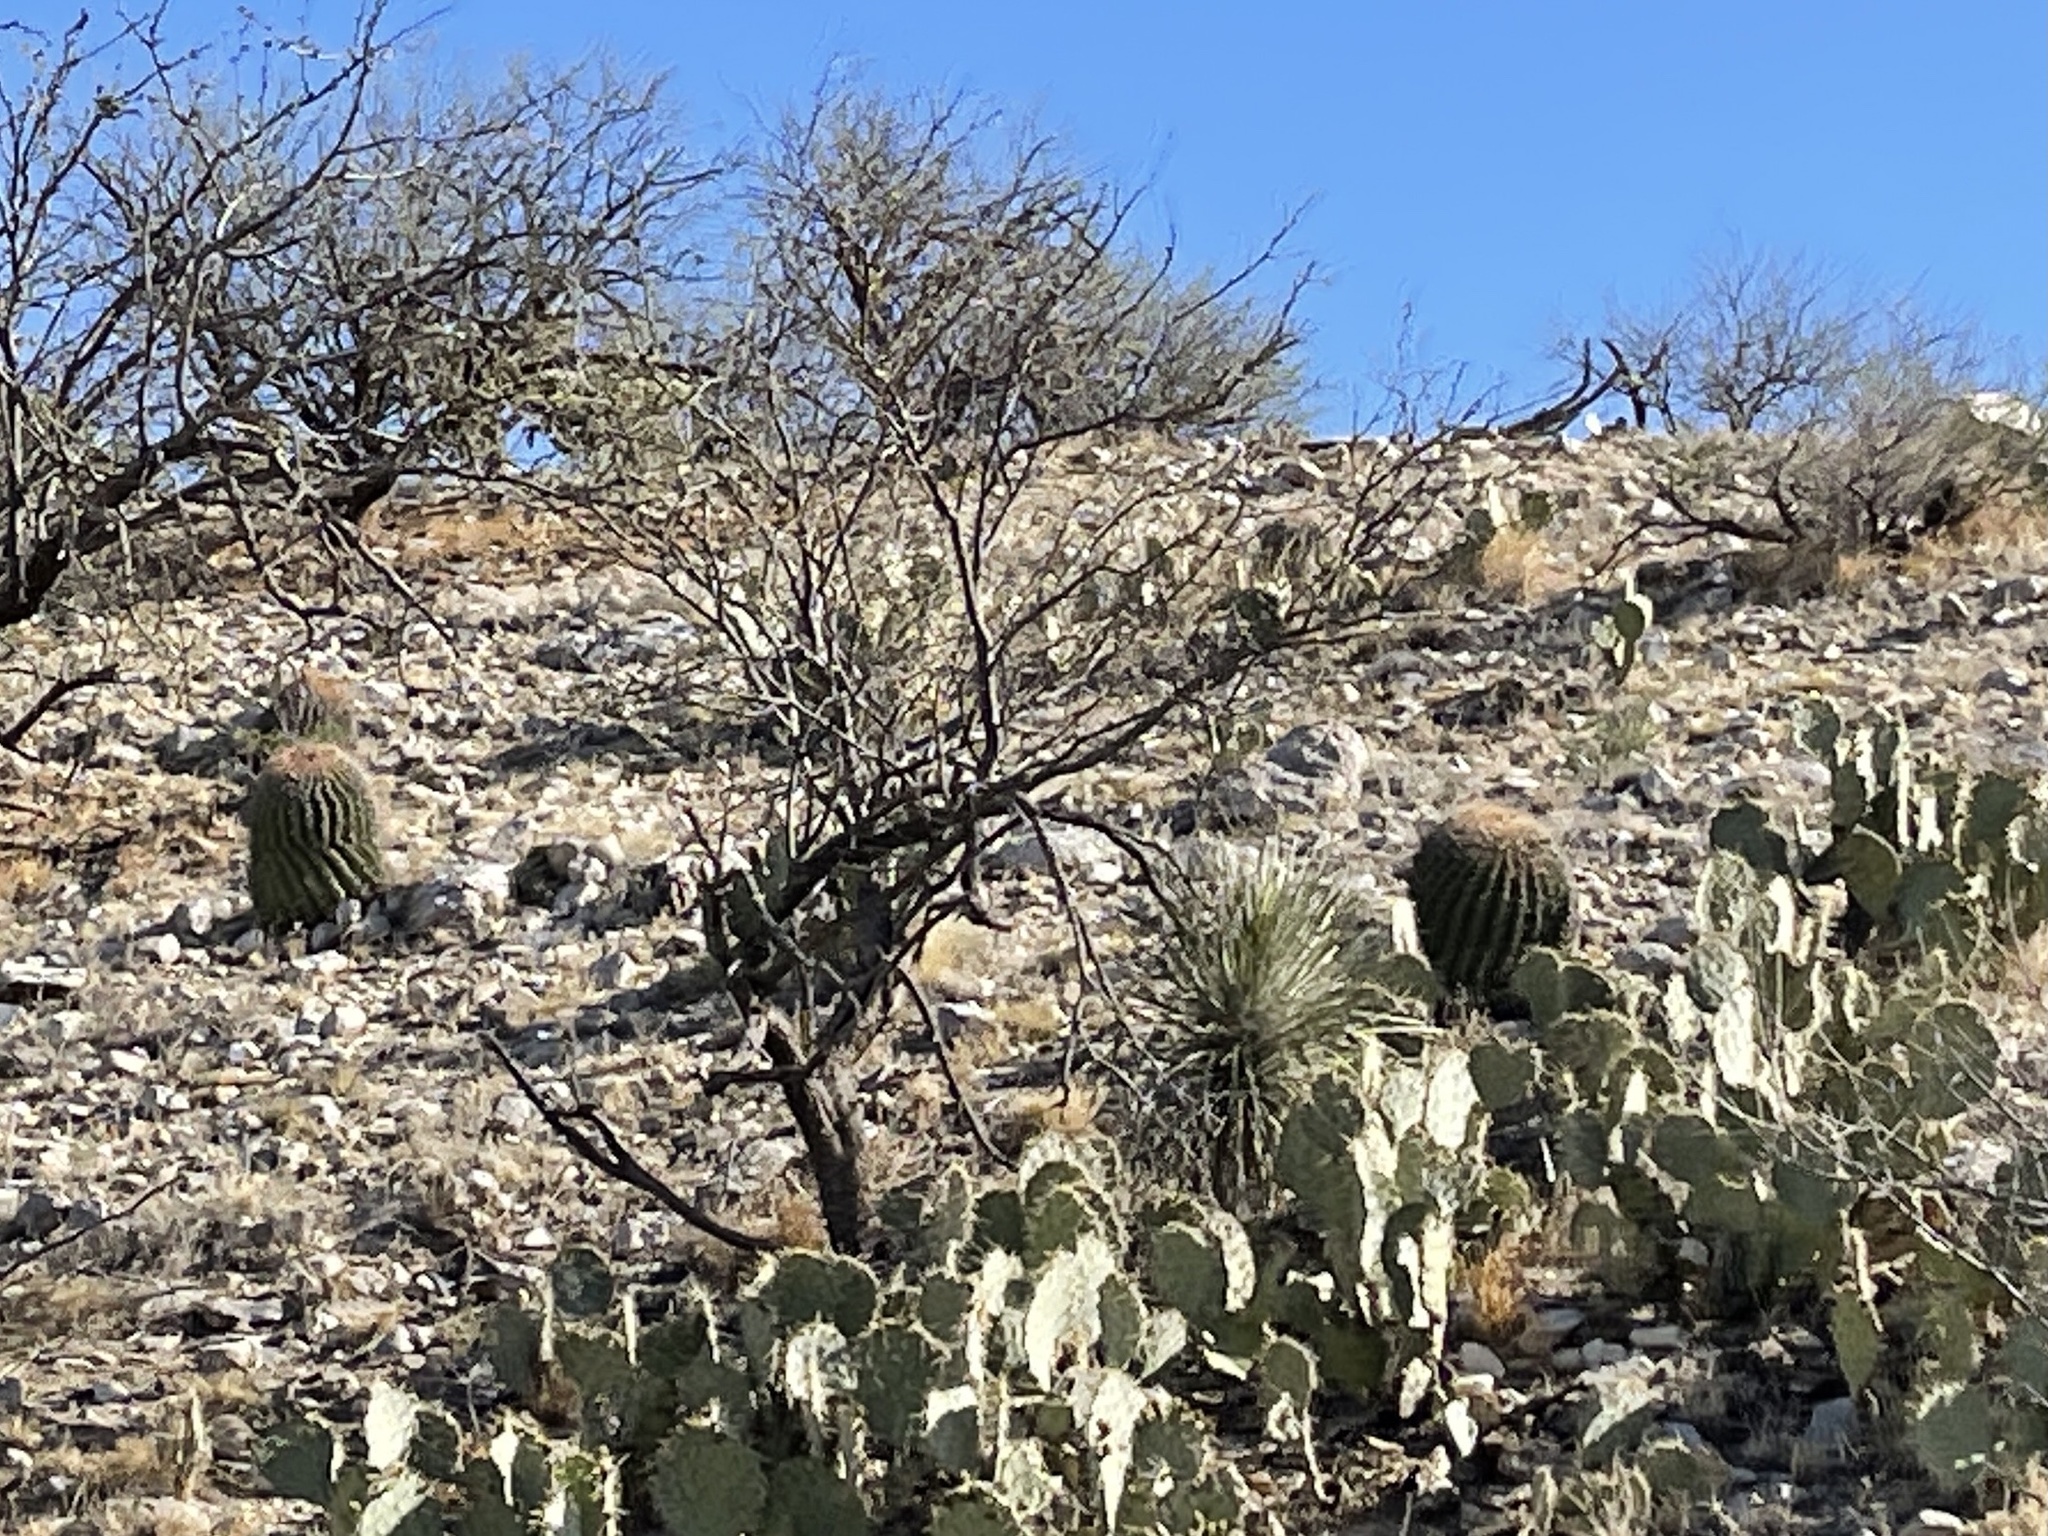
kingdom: Plantae
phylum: Tracheophyta
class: Magnoliopsida
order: Caryophyllales
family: Cactaceae
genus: Ferocactus
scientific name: Ferocactus wislizeni
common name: Candy barrel cactus
